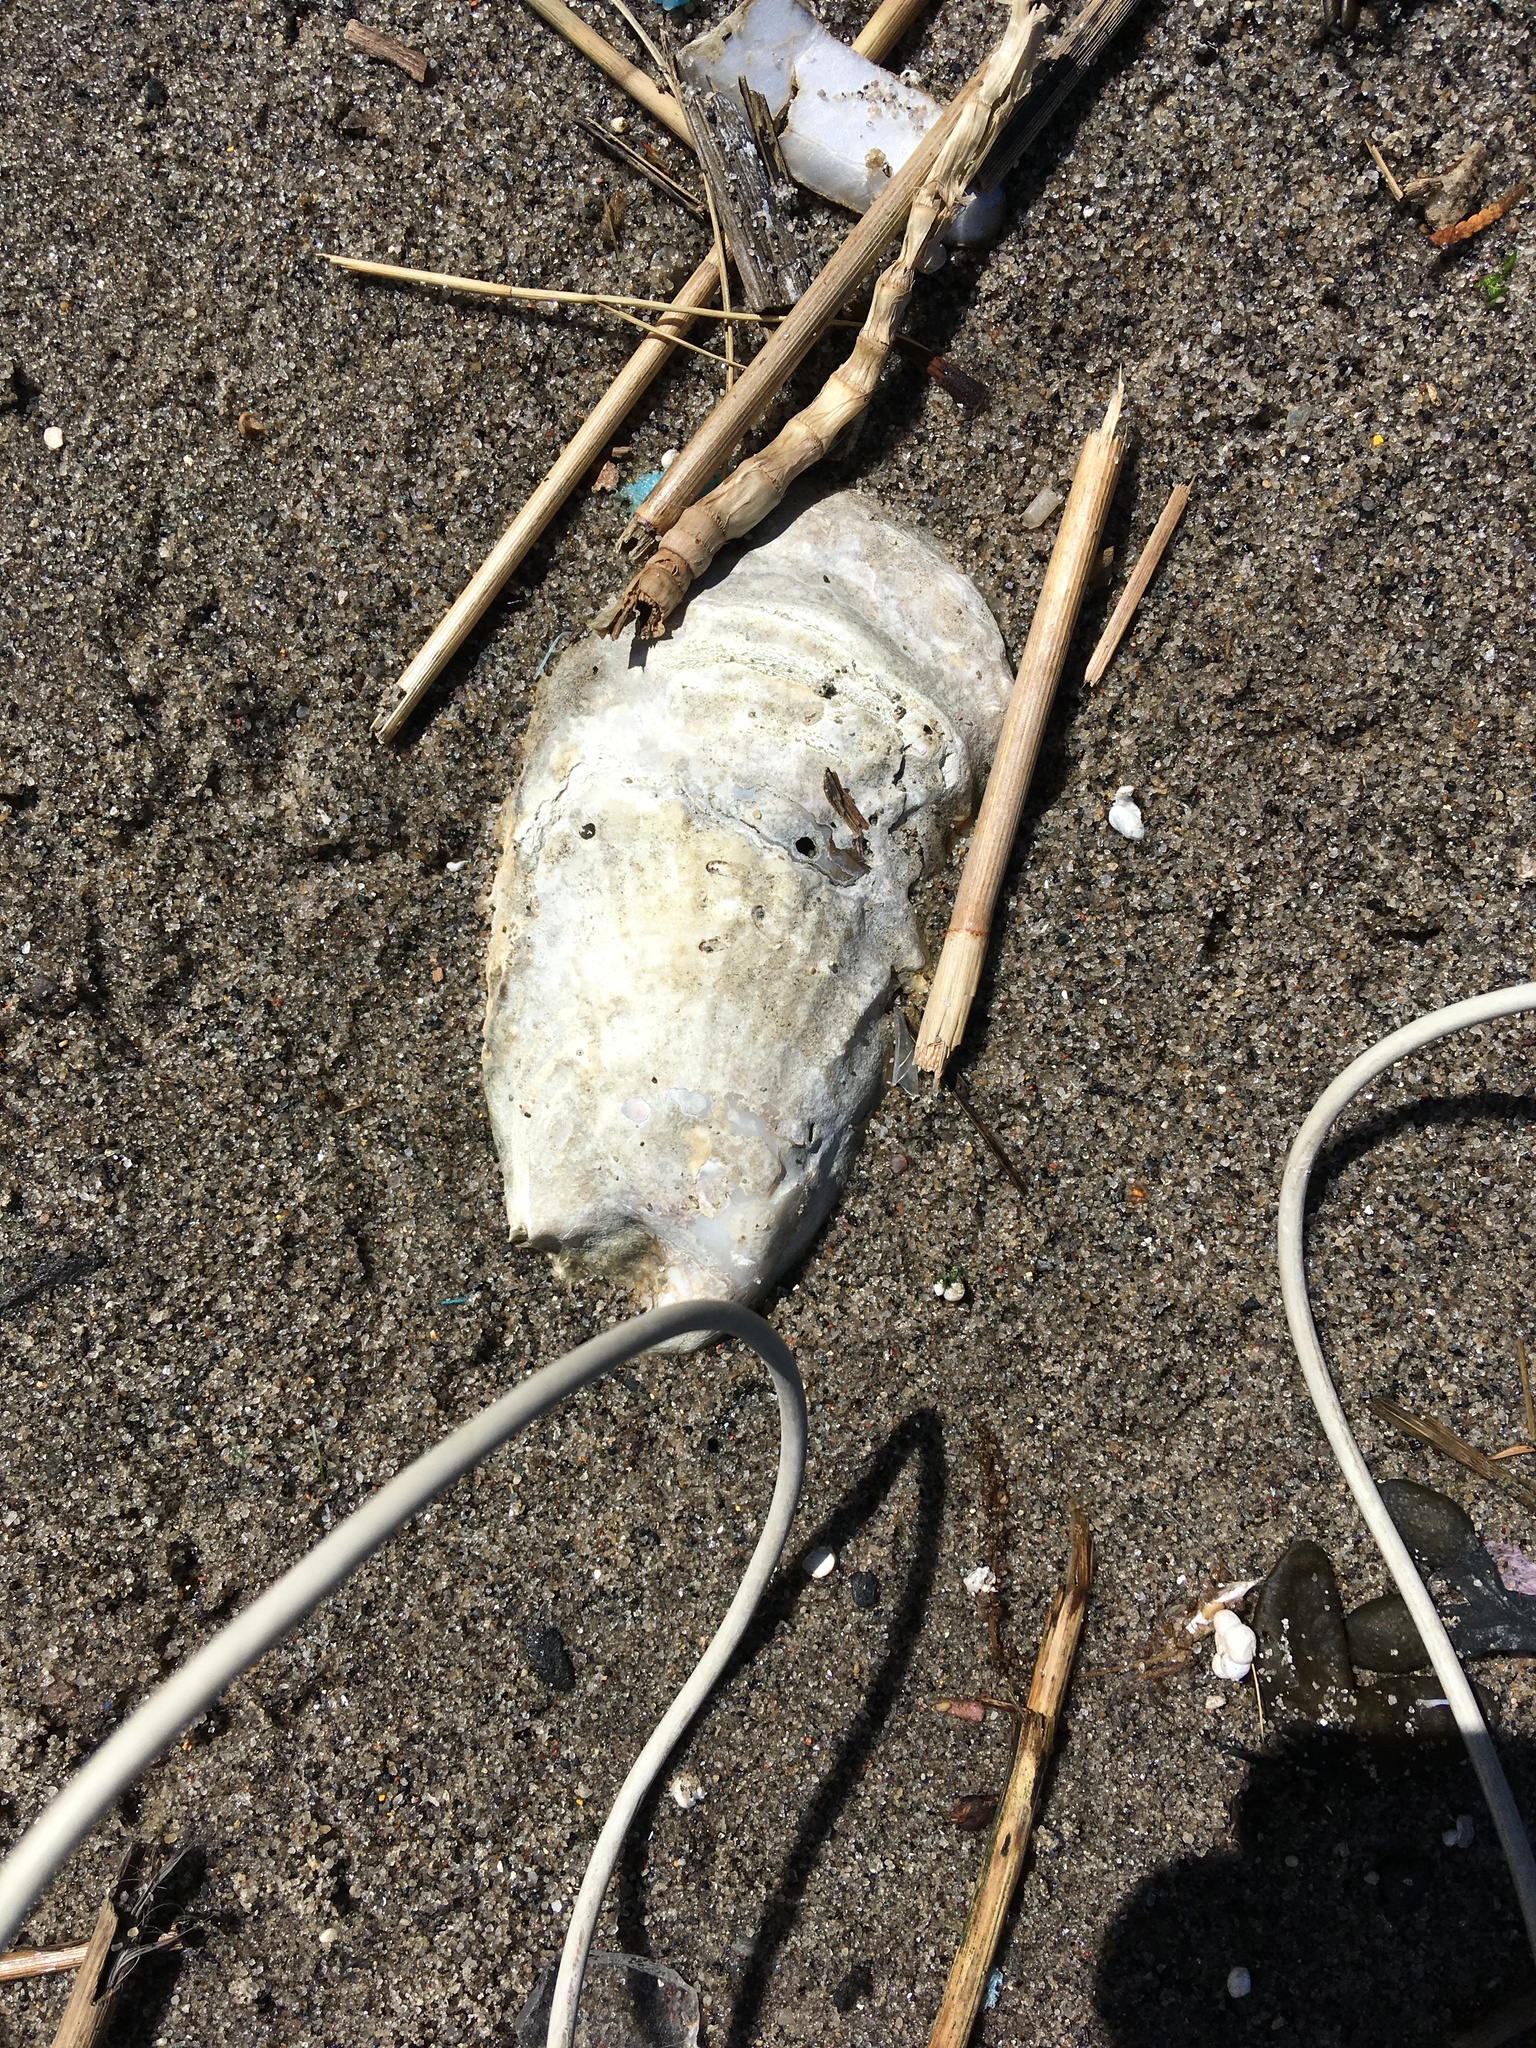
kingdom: Animalia
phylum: Mollusca
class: Bivalvia
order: Ostreida
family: Ostreidae
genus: Crassostrea
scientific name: Crassostrea virginica
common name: American oyster
